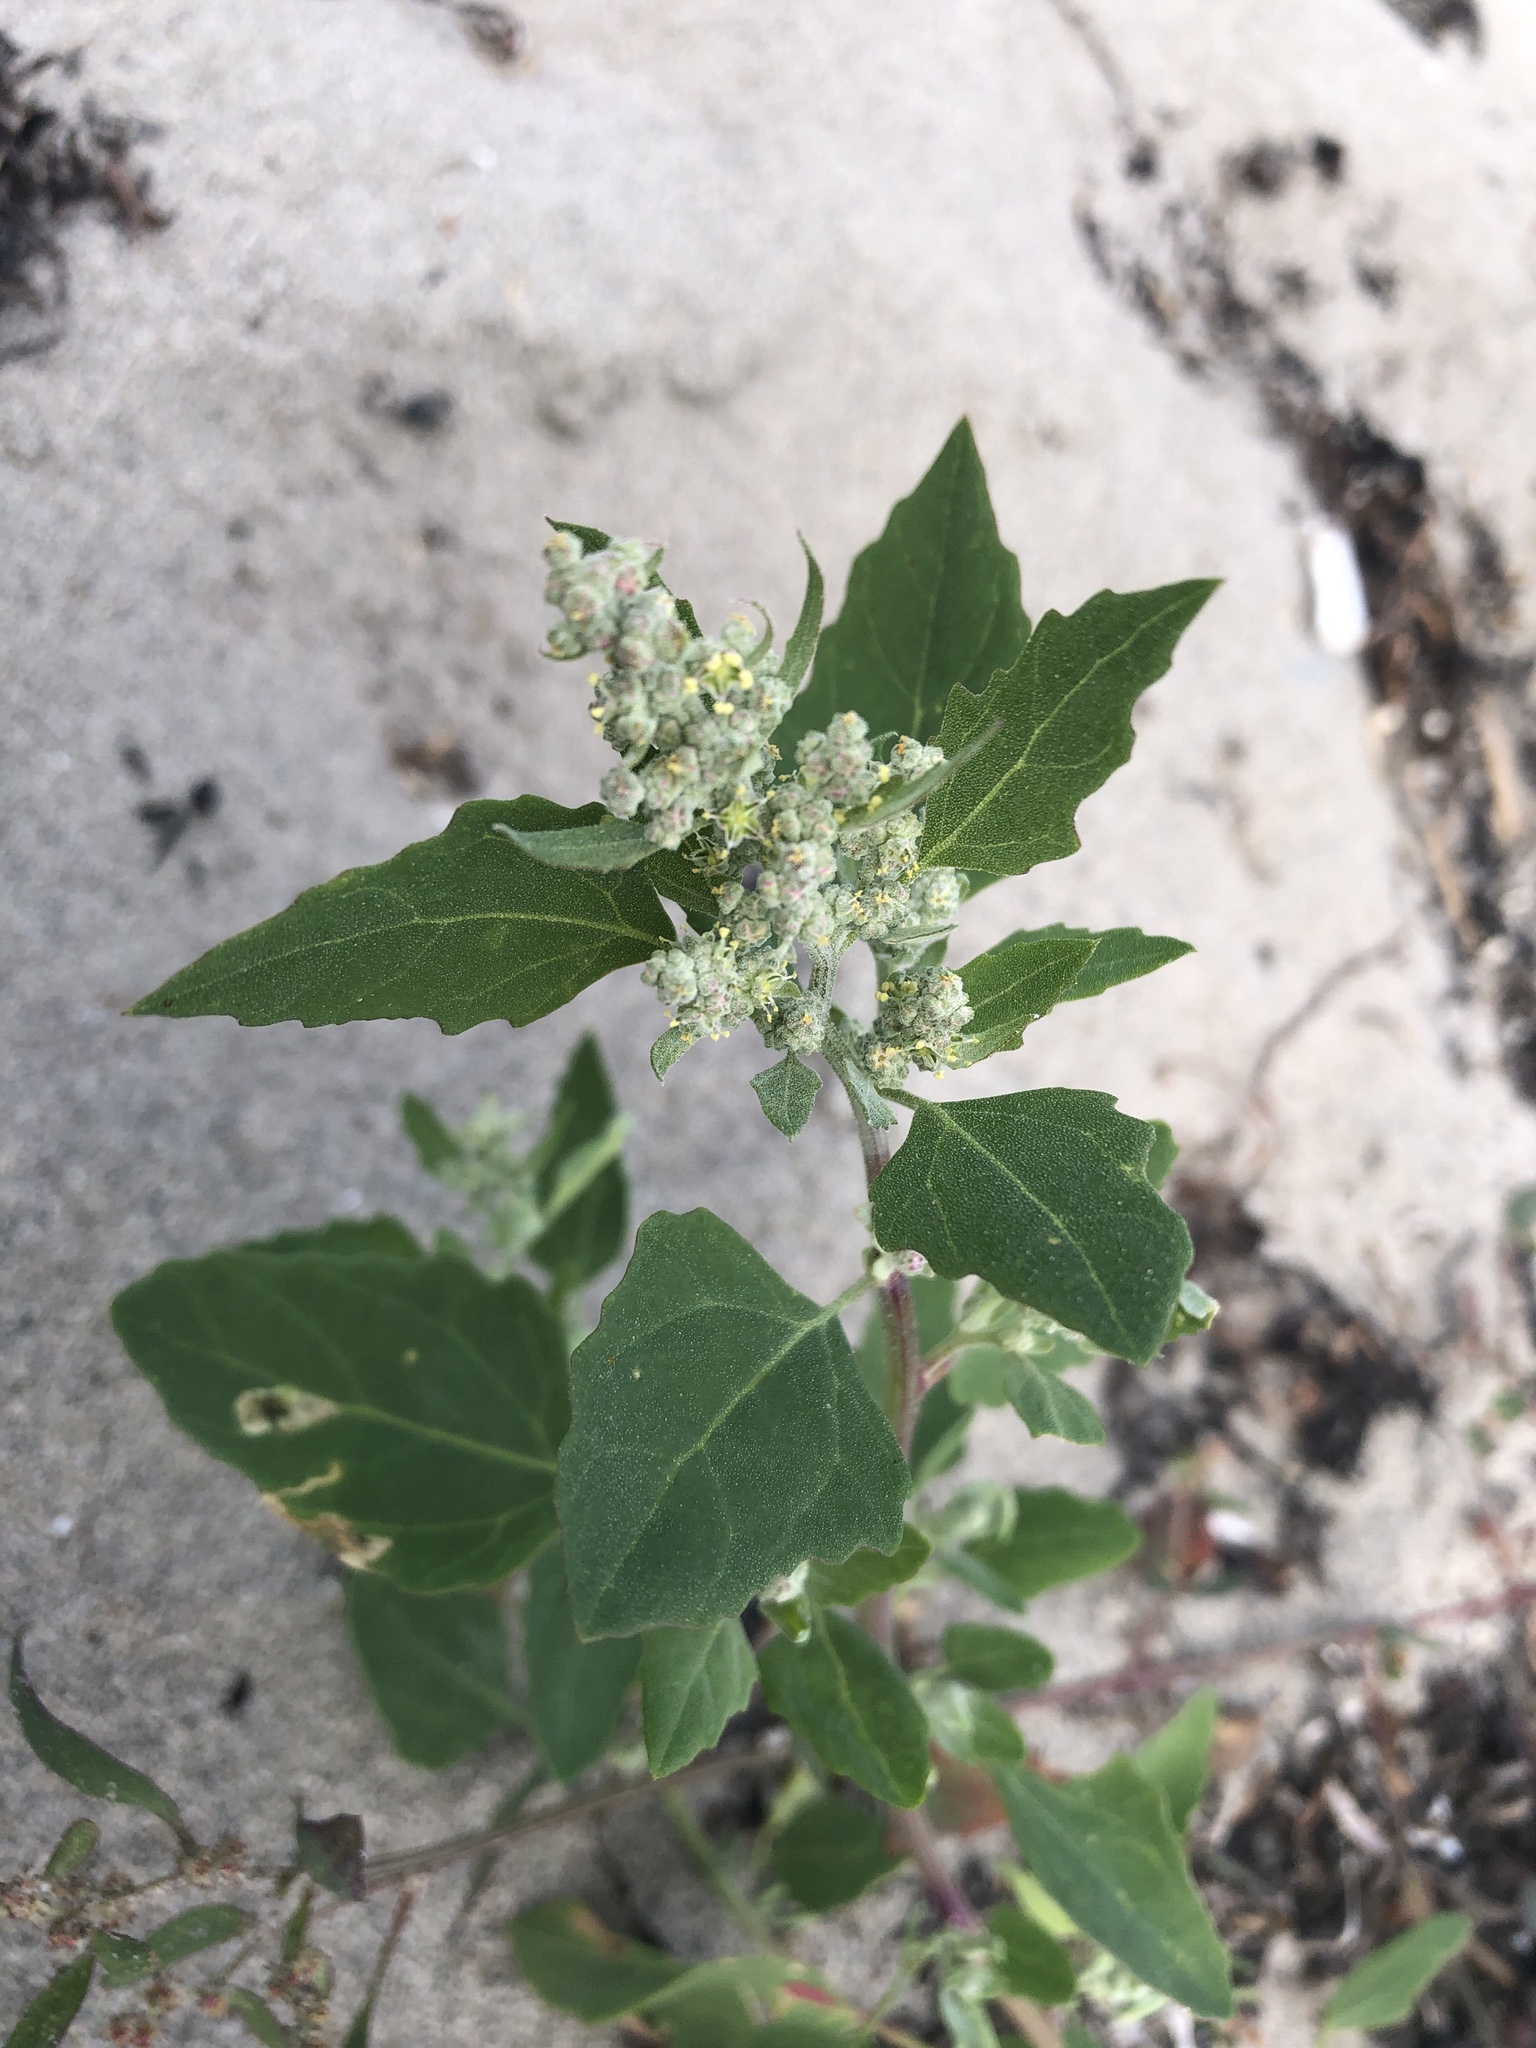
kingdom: Plantae
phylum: Tracheophyta
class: Magnoliopsida
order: Caryophyllales
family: Amaranthaceae
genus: Chenopodium
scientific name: Chenopodium album
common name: Fat-hen
